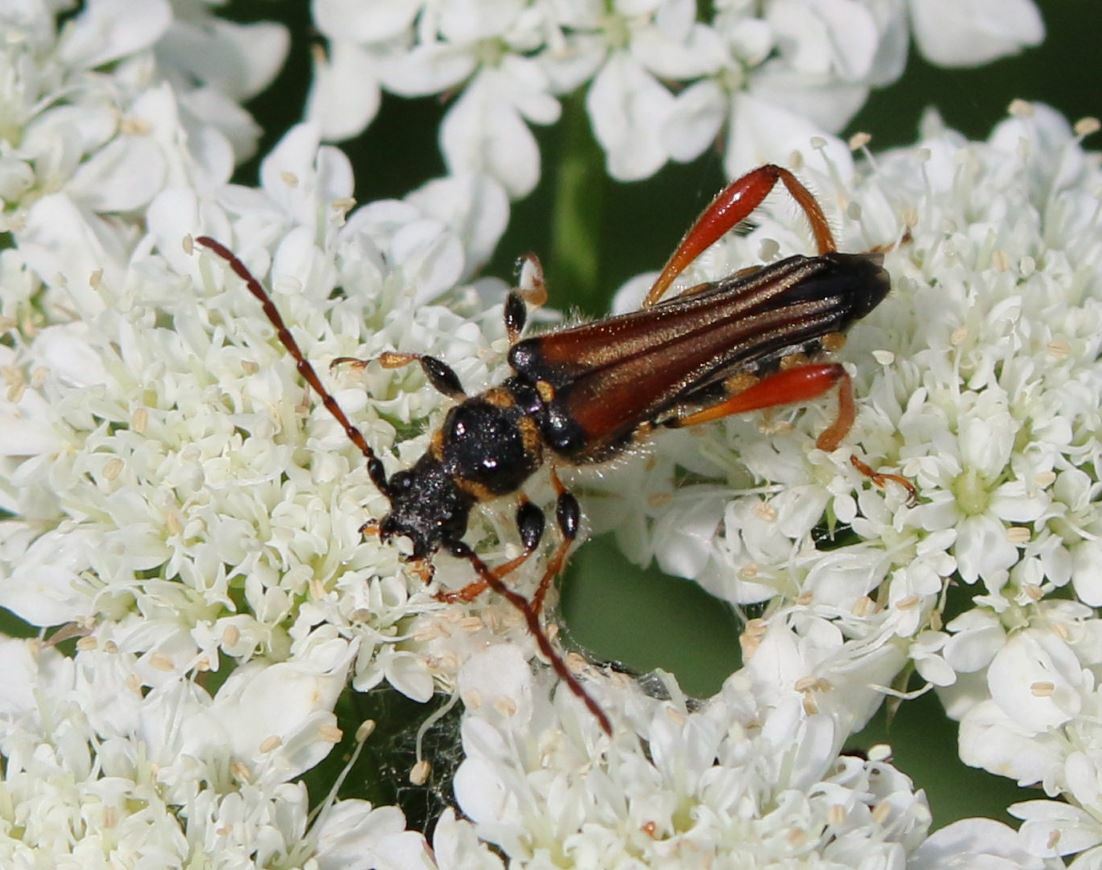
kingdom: Animalia
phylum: Arthropoda
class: Insecta
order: Coleoptera
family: Cerambycidae
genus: Stenopterus
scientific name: Stenopterus rufus
